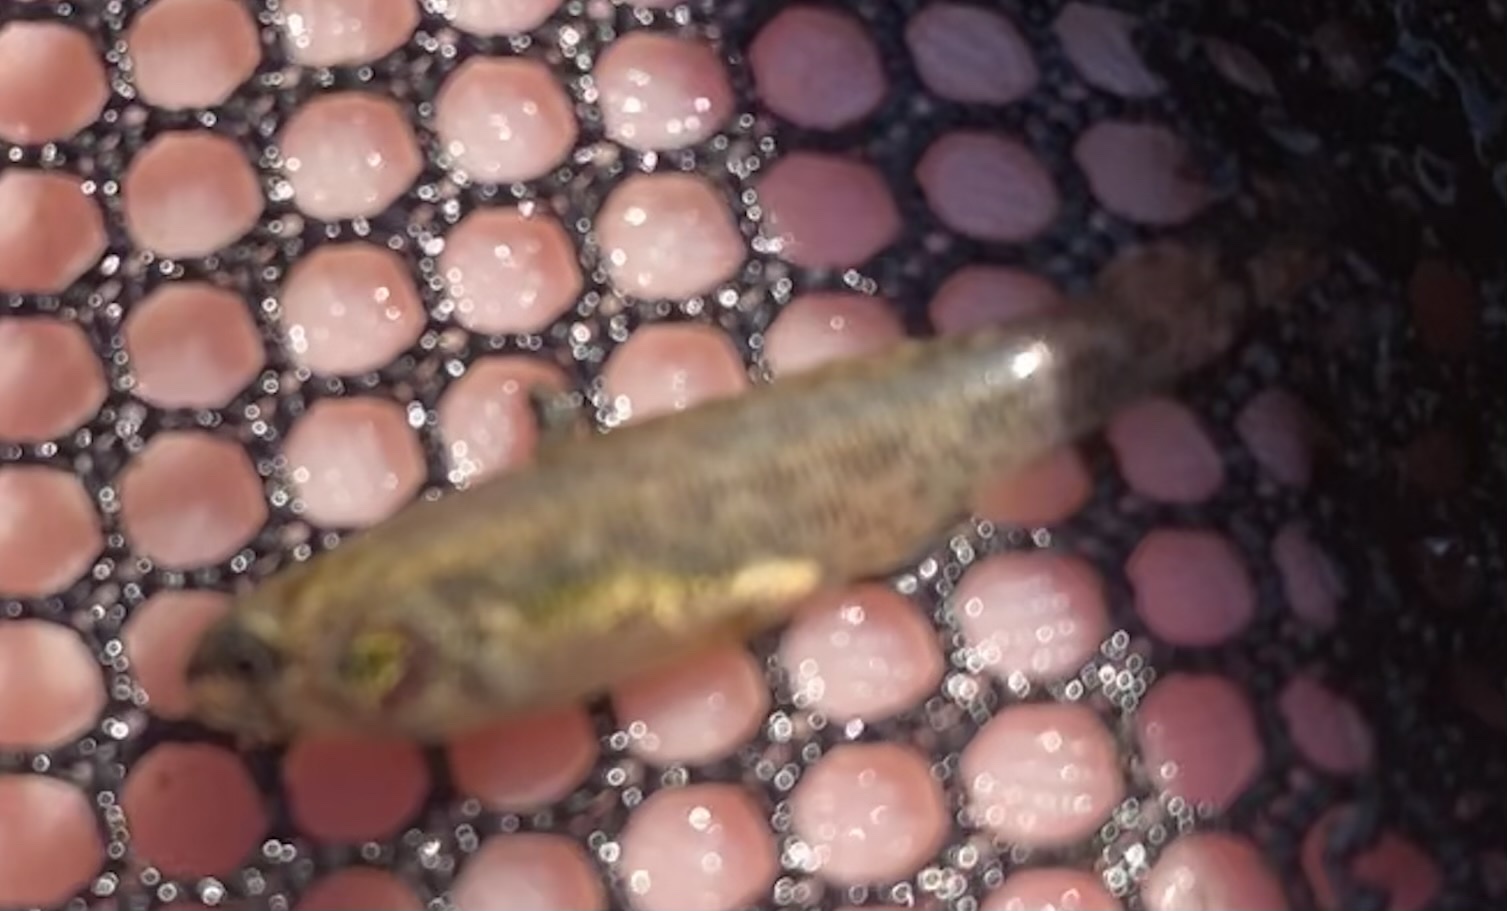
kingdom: Animalia
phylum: Chordata
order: Perciformes
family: Percidae
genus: Etheostoma
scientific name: Etheostoma microperca
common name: Least darter
